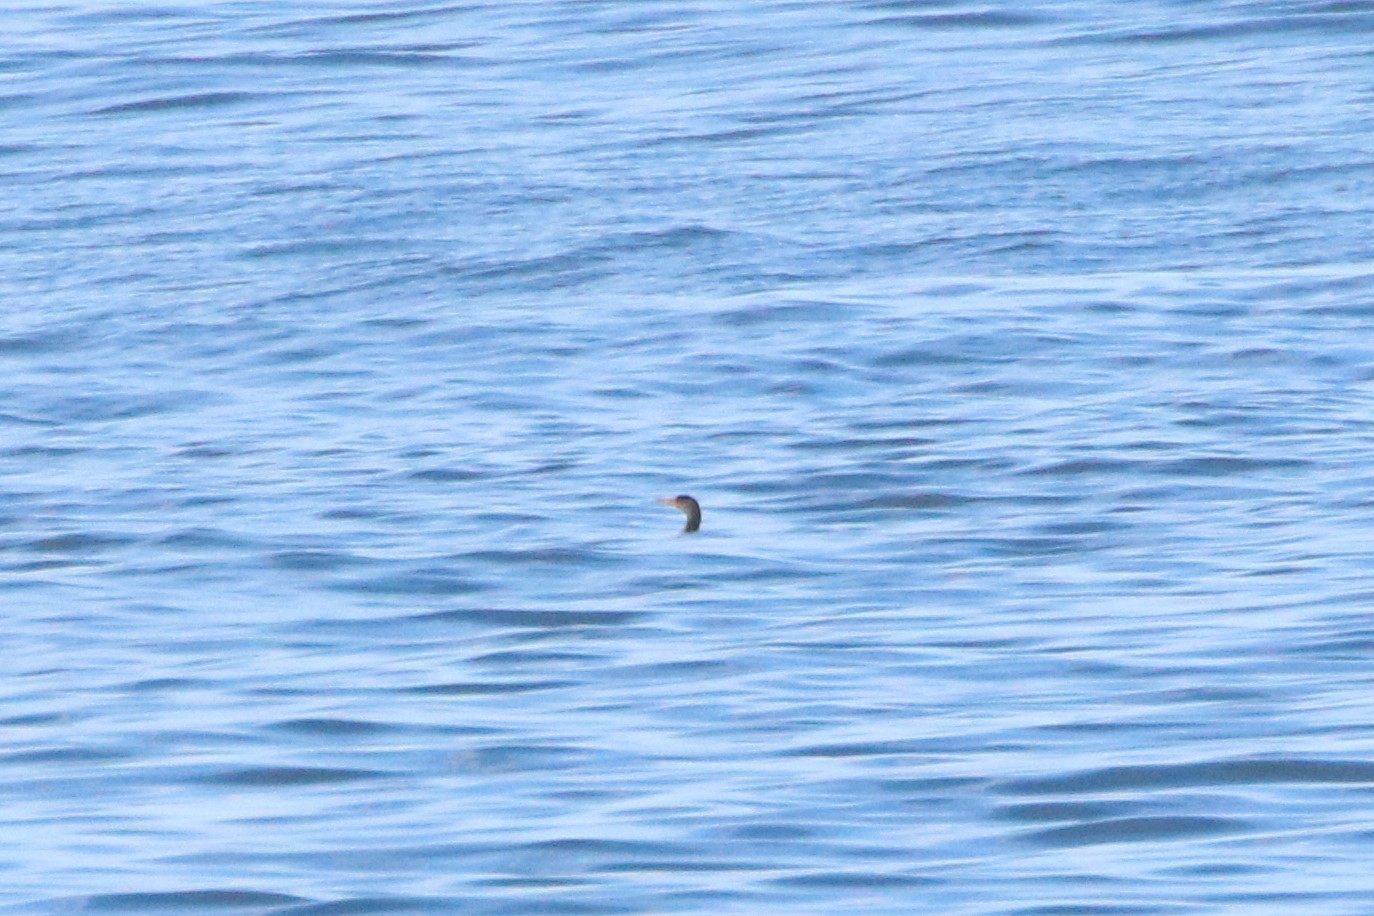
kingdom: Animalia
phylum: Chordata
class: Aves
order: Suliformes
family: Phalacrocoracidae
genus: Phalacrocorax
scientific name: Phalacrocorax auritus
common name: Double-crested cormorant
